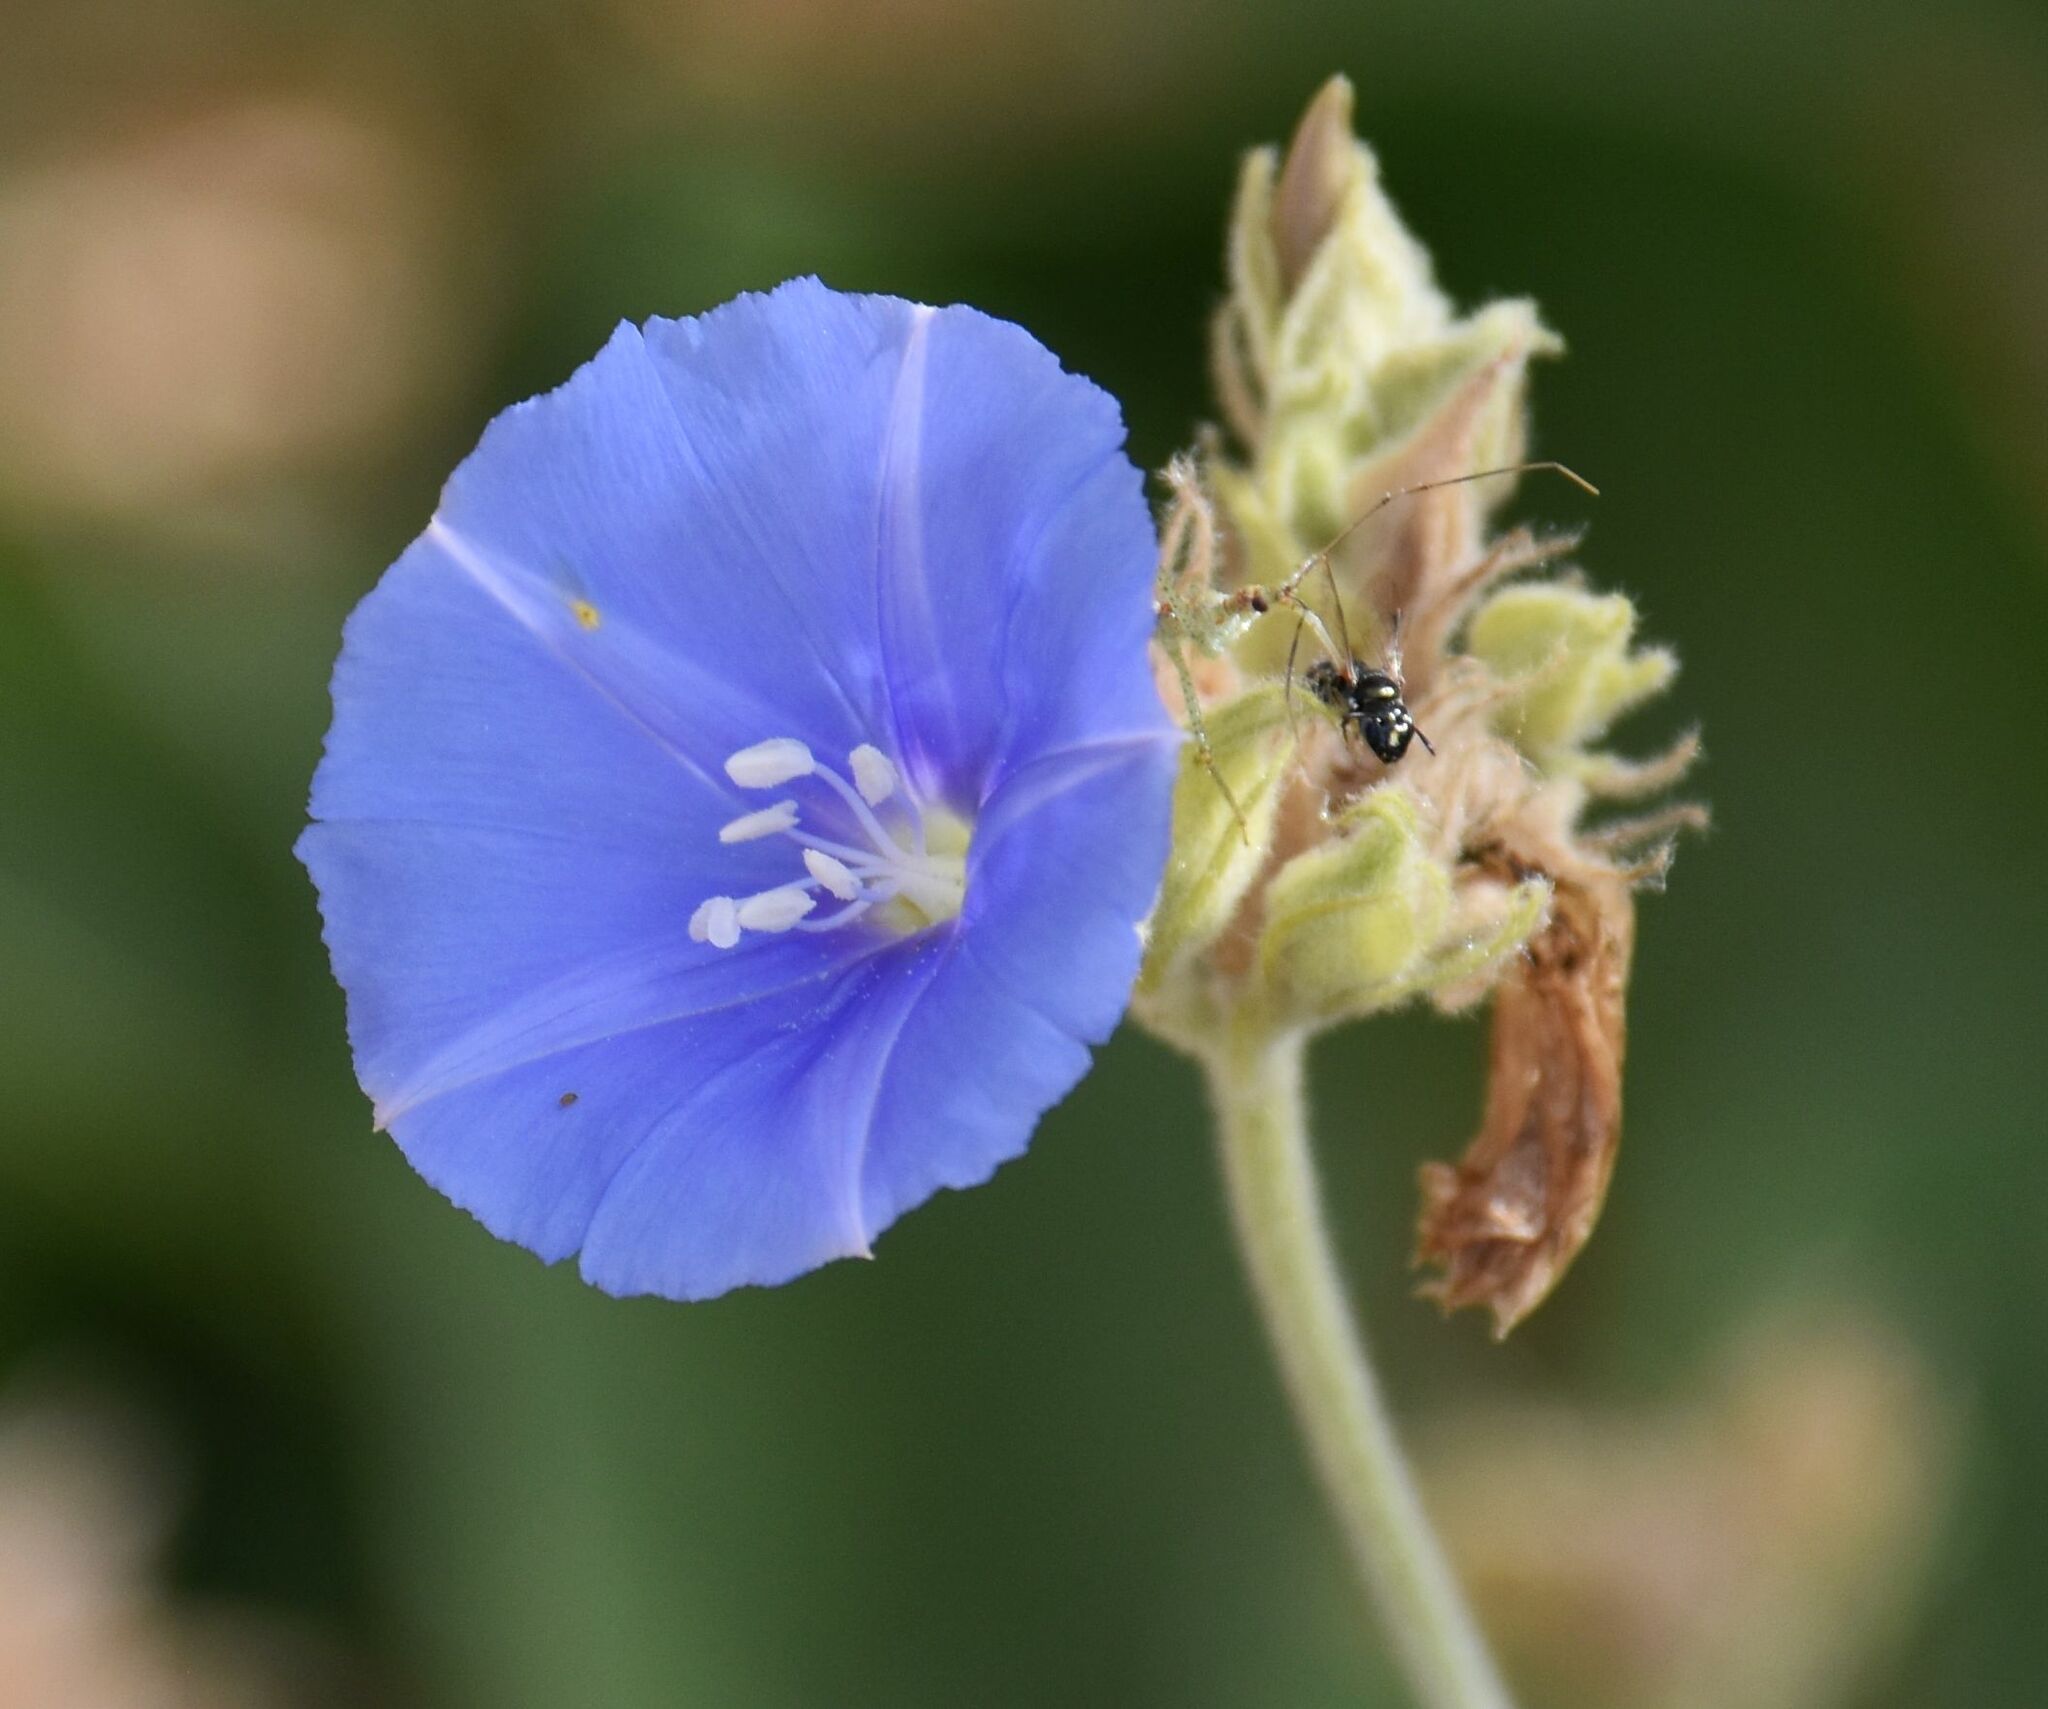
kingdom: Plantae
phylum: Tracheophyta
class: Magnoliopsida
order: Solanales
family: Convolvulaceae
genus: Jacquemontia
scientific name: Jacquemontia abutiloides
